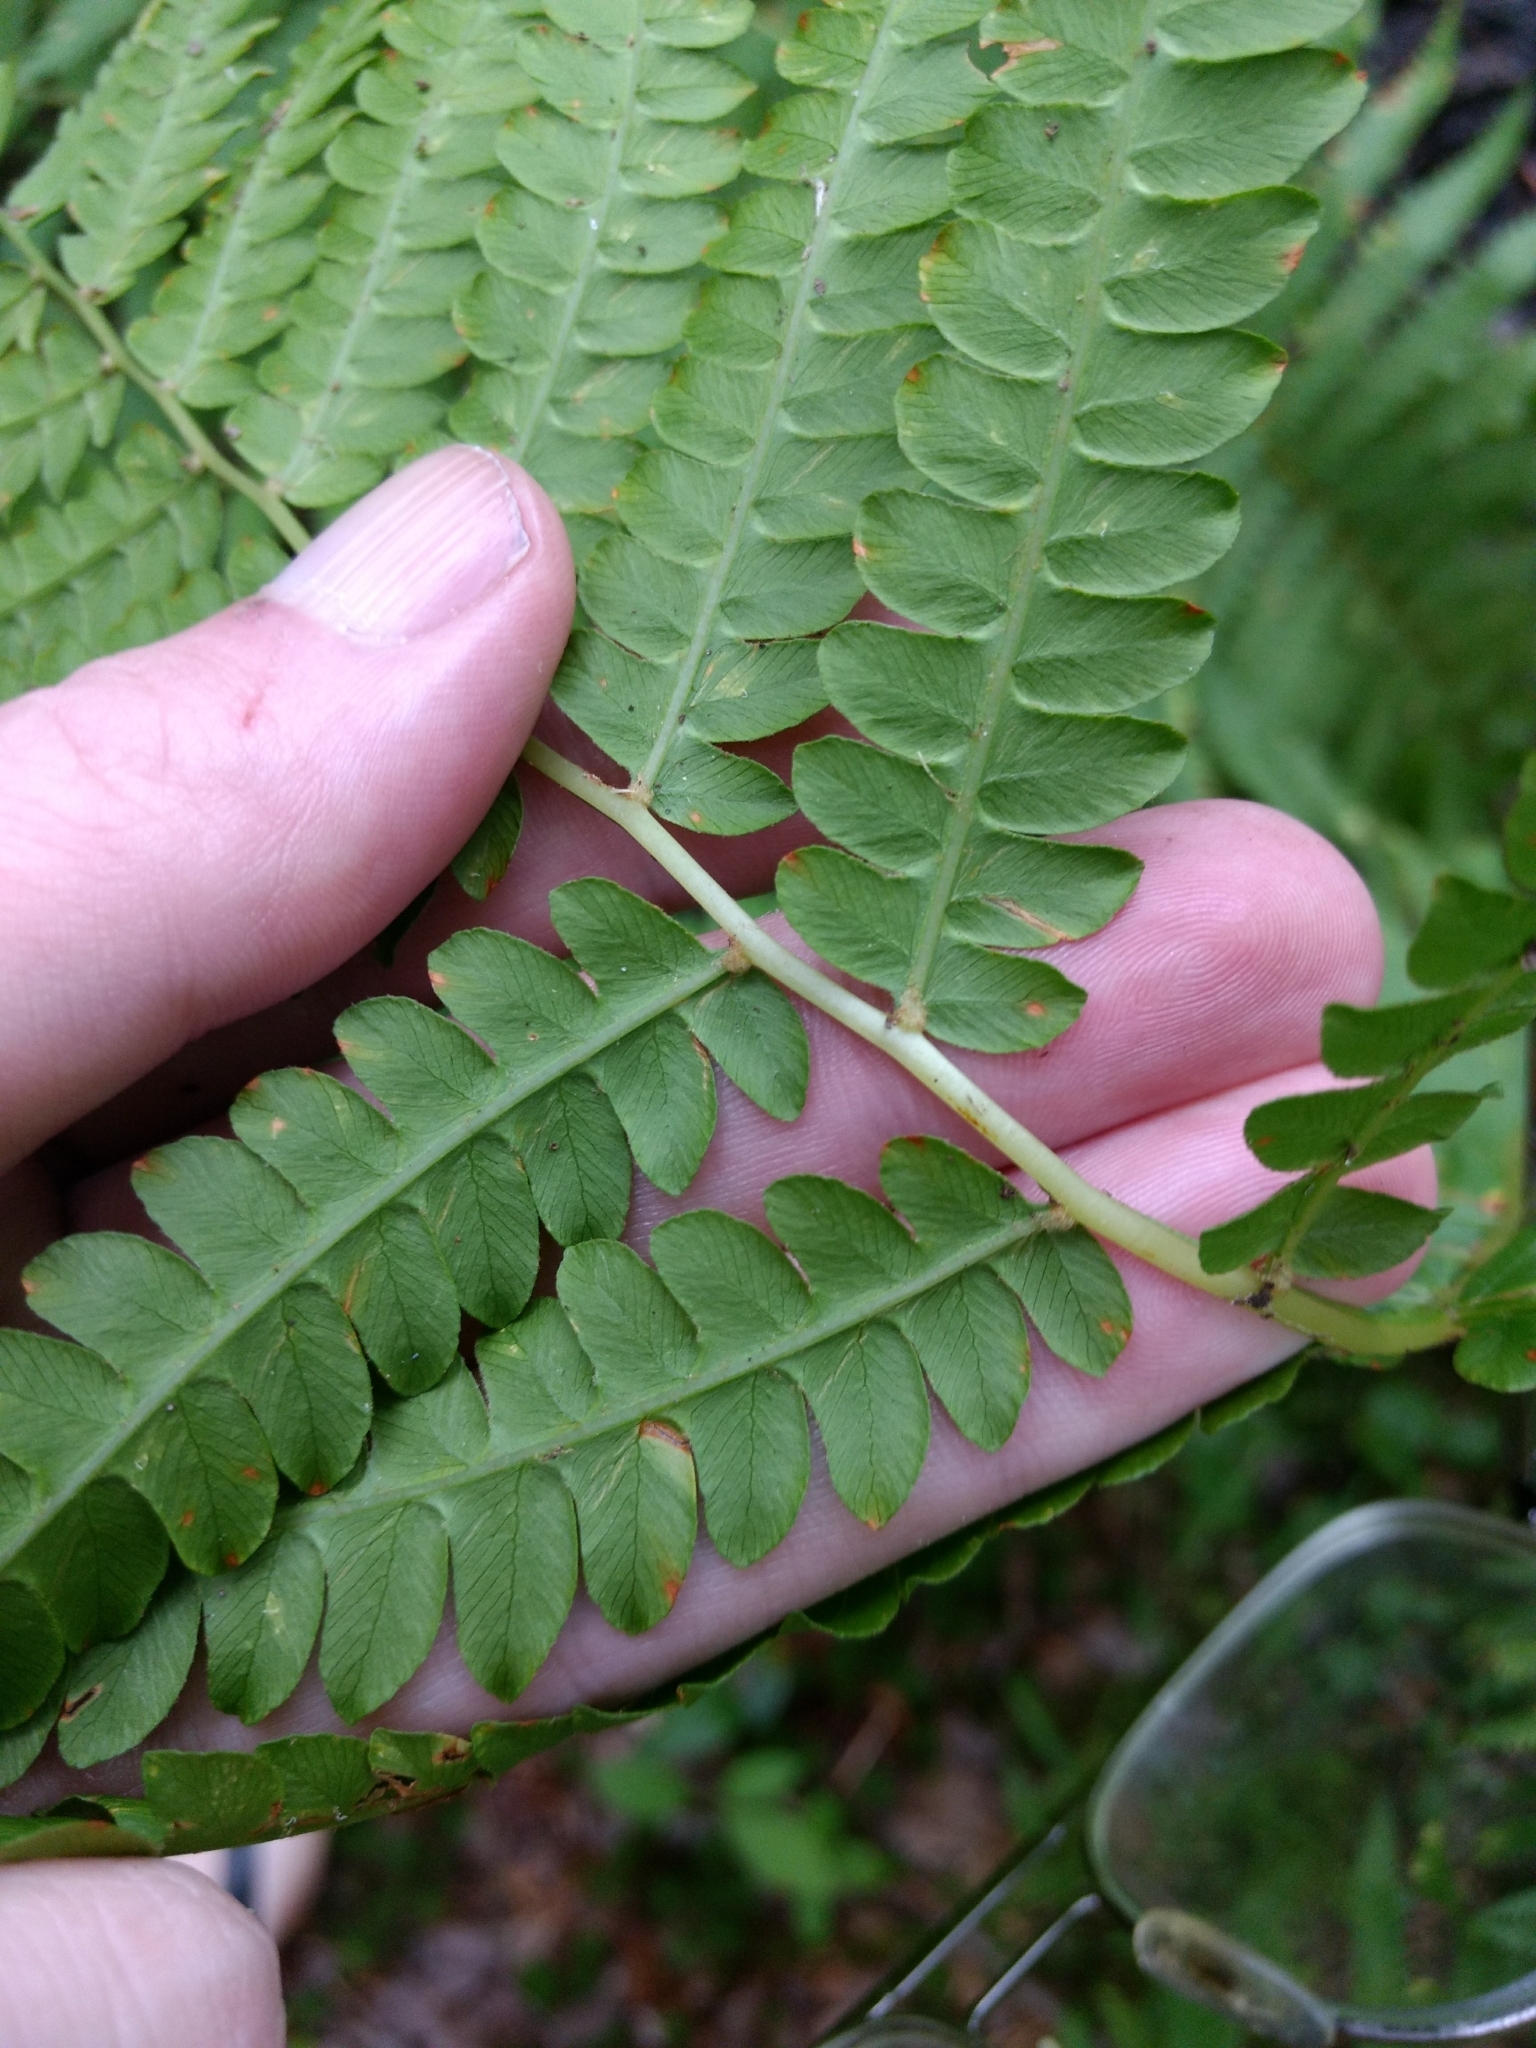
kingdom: Plantae
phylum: Tracheophyta
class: Polypodiopsida
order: Osmundales
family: Osmundaceae
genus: Osmundastrum
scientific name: Osmundastrum cinnamomeum
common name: Cinnamon fern
